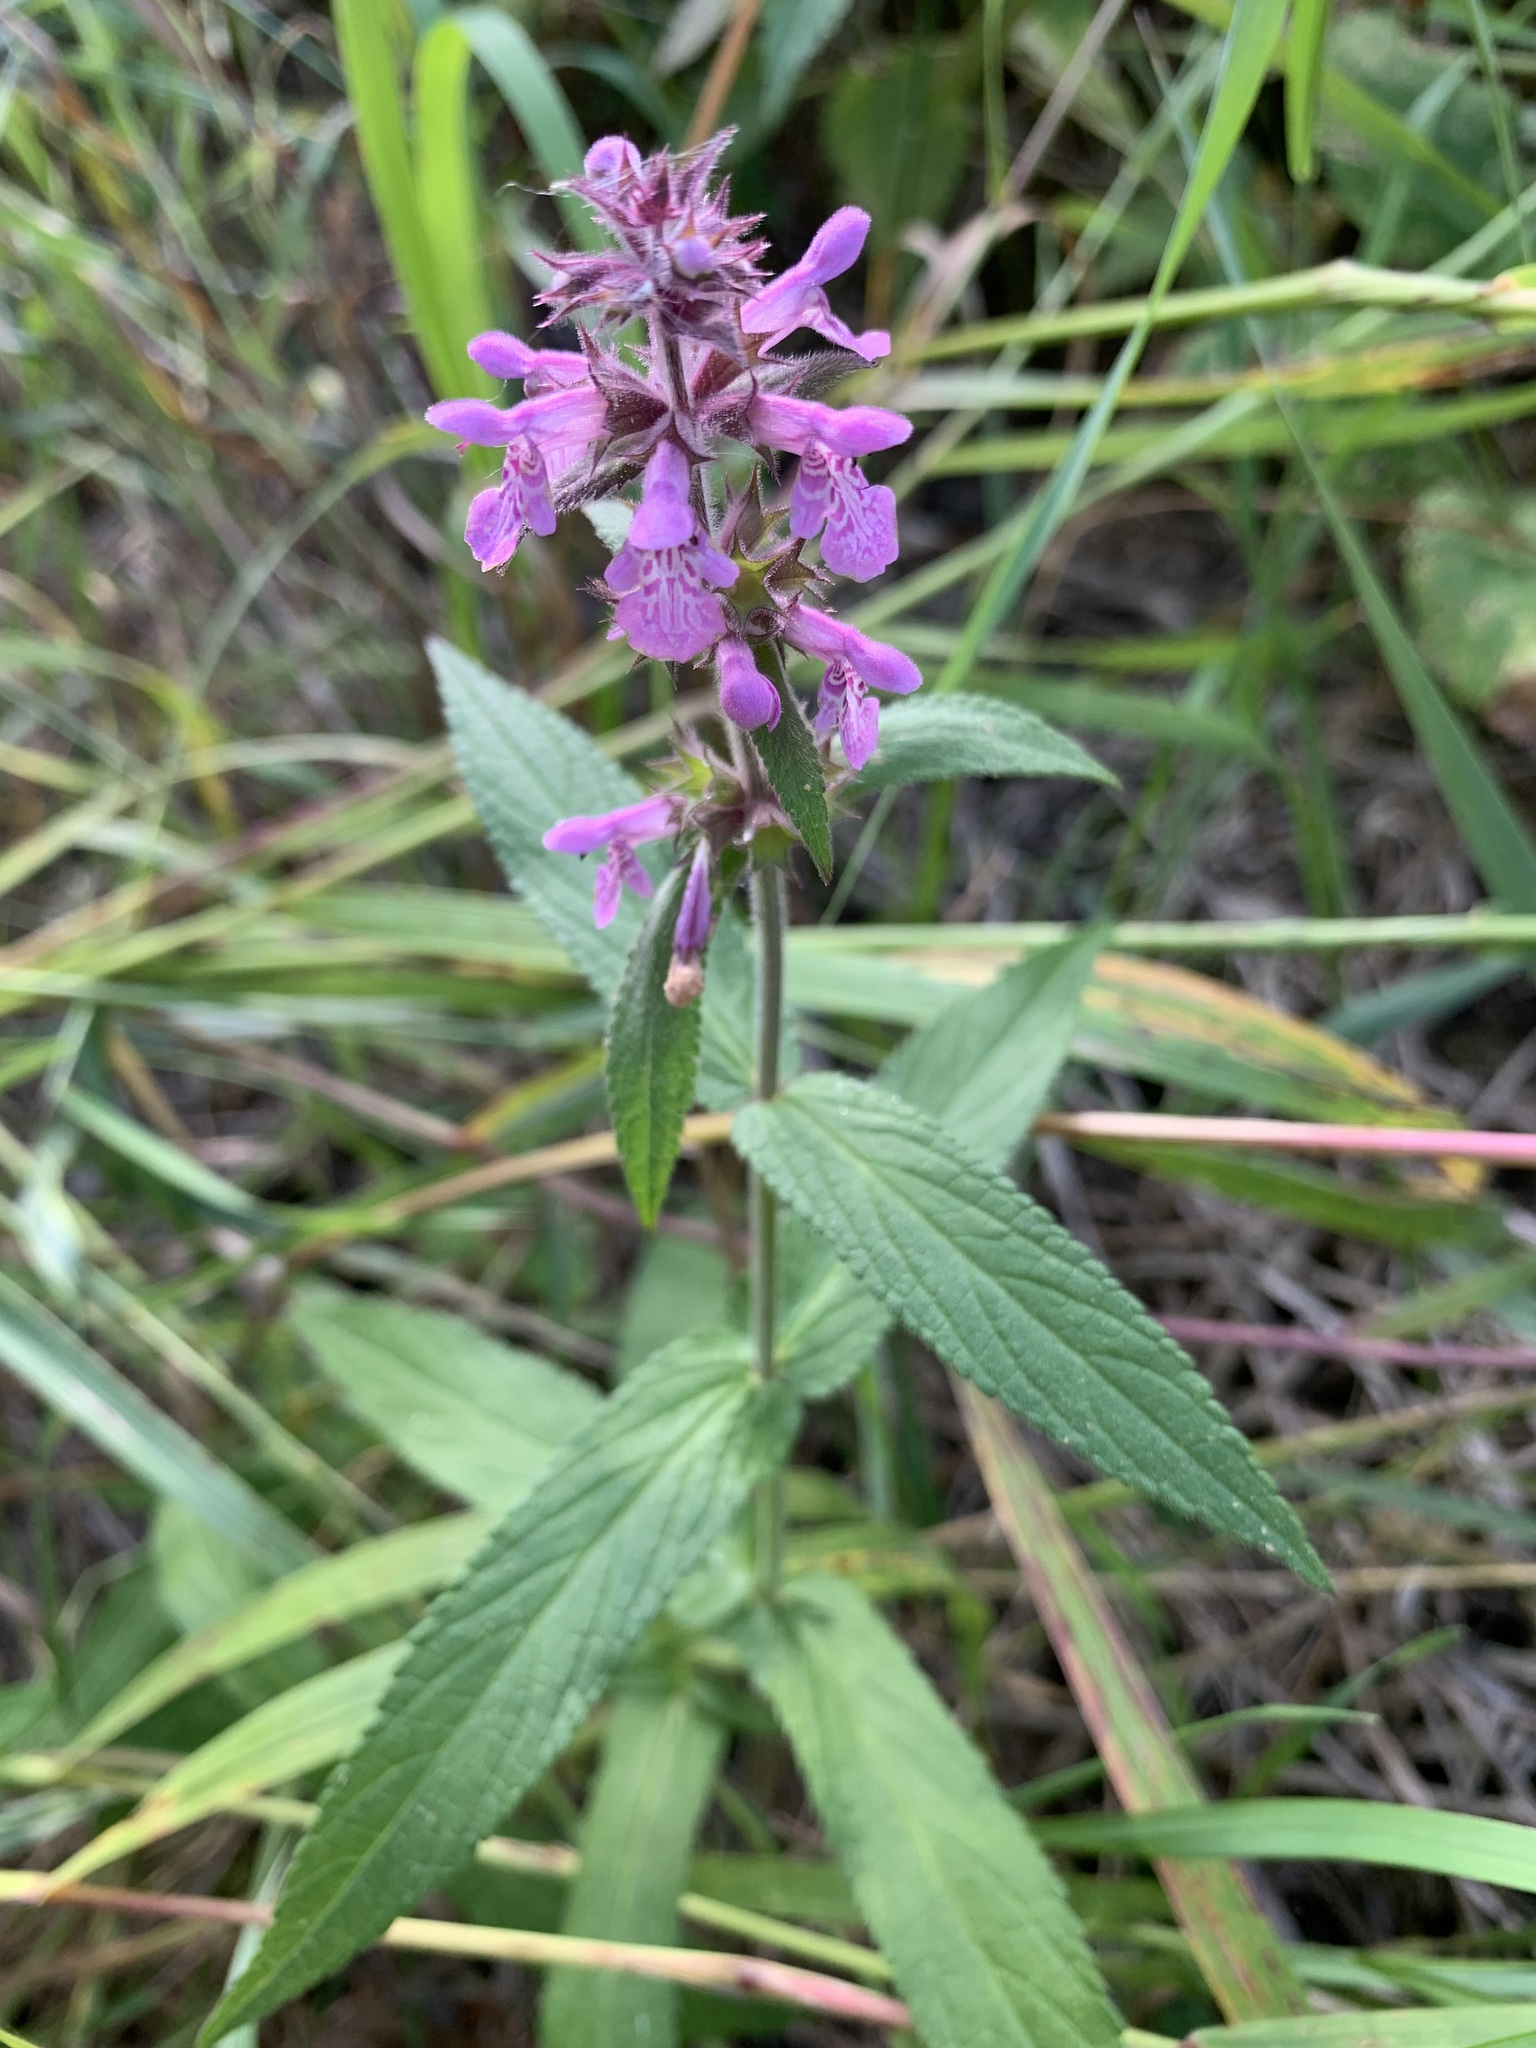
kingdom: Plantae
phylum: Tracheophyta
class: Magnoliopsida
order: Lamiales
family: Lamiaceae
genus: Stachys
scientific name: Stachys palustris
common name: Marsh woundwort
